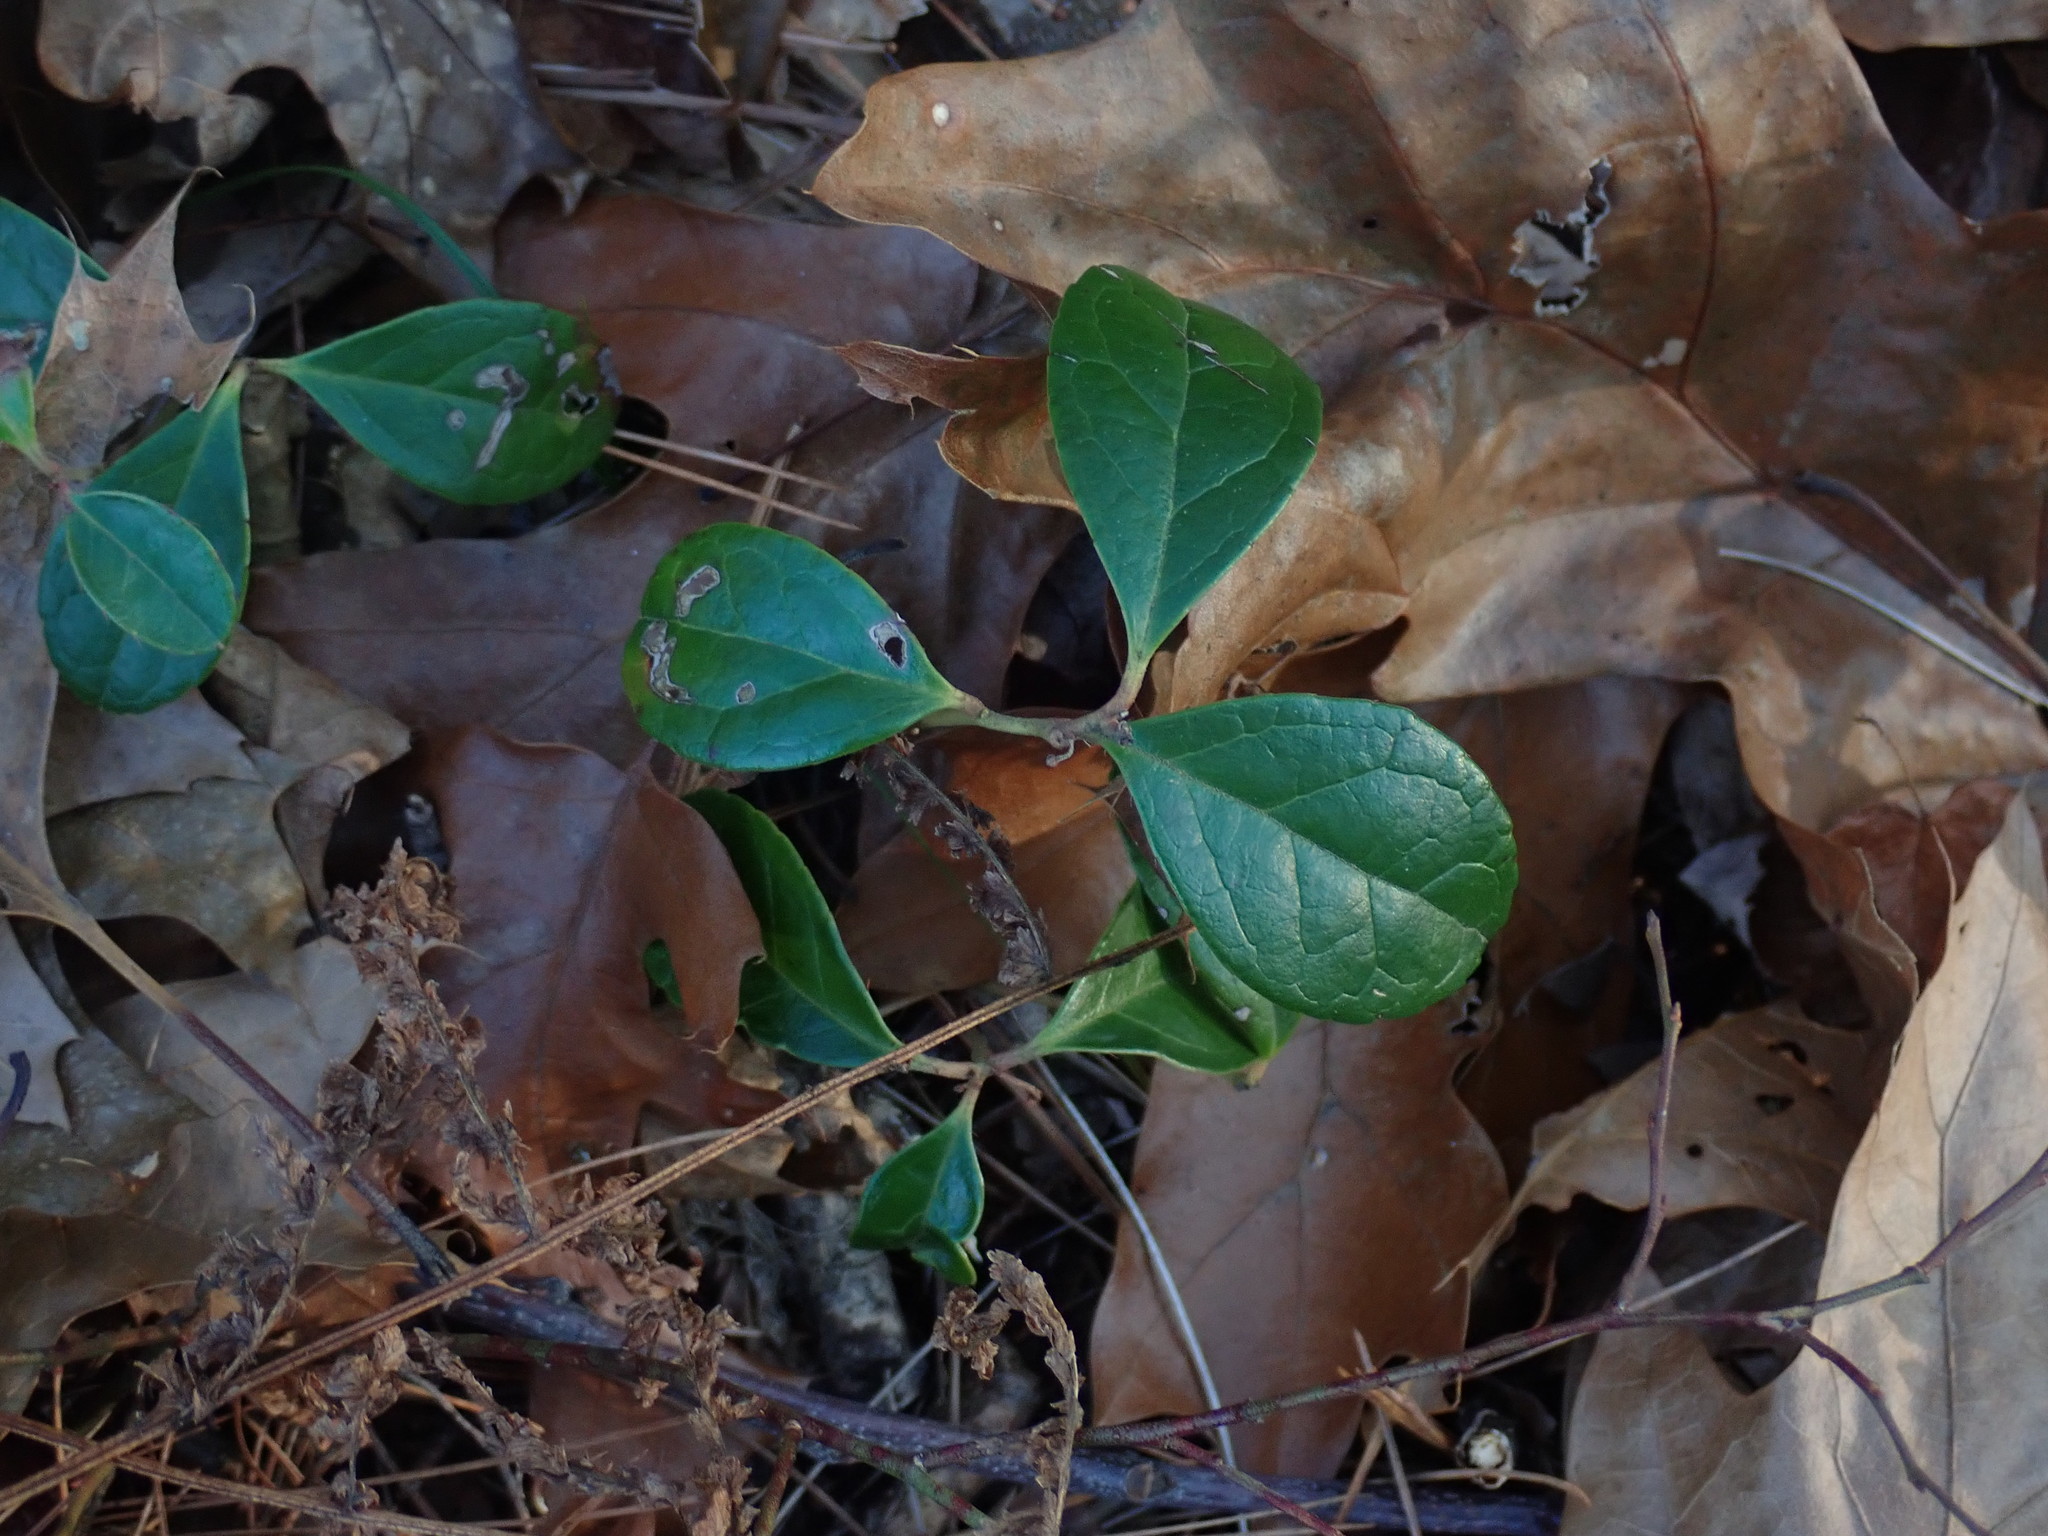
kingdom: Plantae
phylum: Tracheophyta
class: Magnoliopsida
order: Ericales
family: Ericaceae
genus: Gaultheria
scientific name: Gaultheria procumbens
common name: Checkerberry
